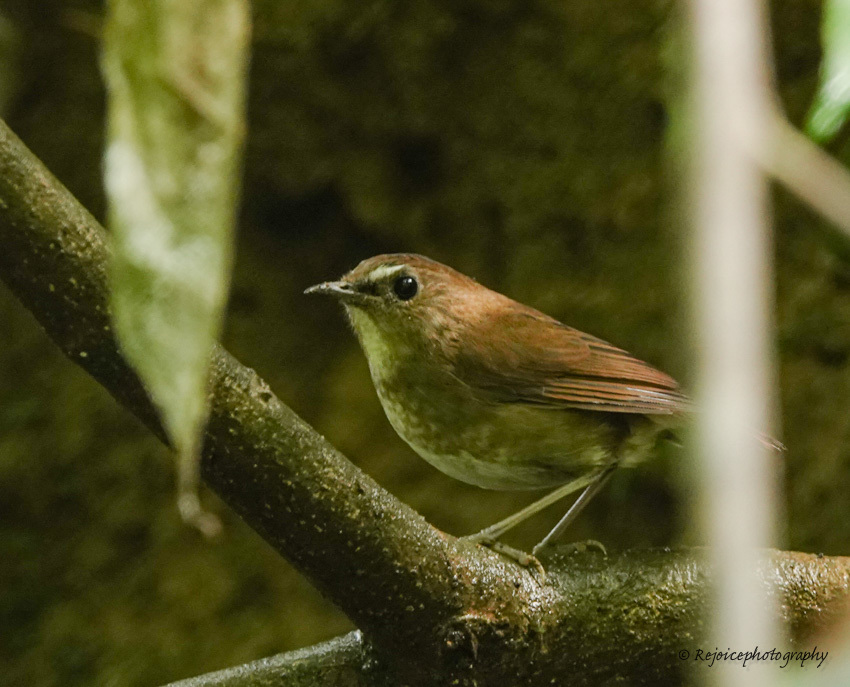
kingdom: Animalia
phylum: Chordata
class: Aves
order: Passeriformes
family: Muscicapidae
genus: Brachypteryx
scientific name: Brachypteryx leucophris
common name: Lesser shortwing
